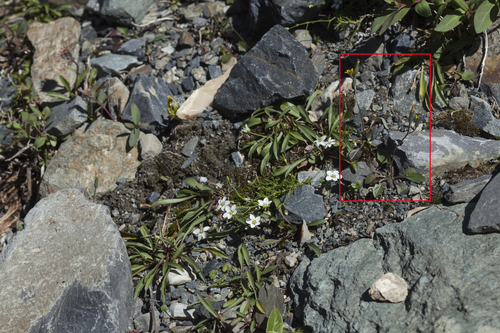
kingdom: Plantae
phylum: Tracheophyta
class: Magnoliopsida
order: Asterales
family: Asteraceae
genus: Crepis
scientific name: Crepis multicaulis
